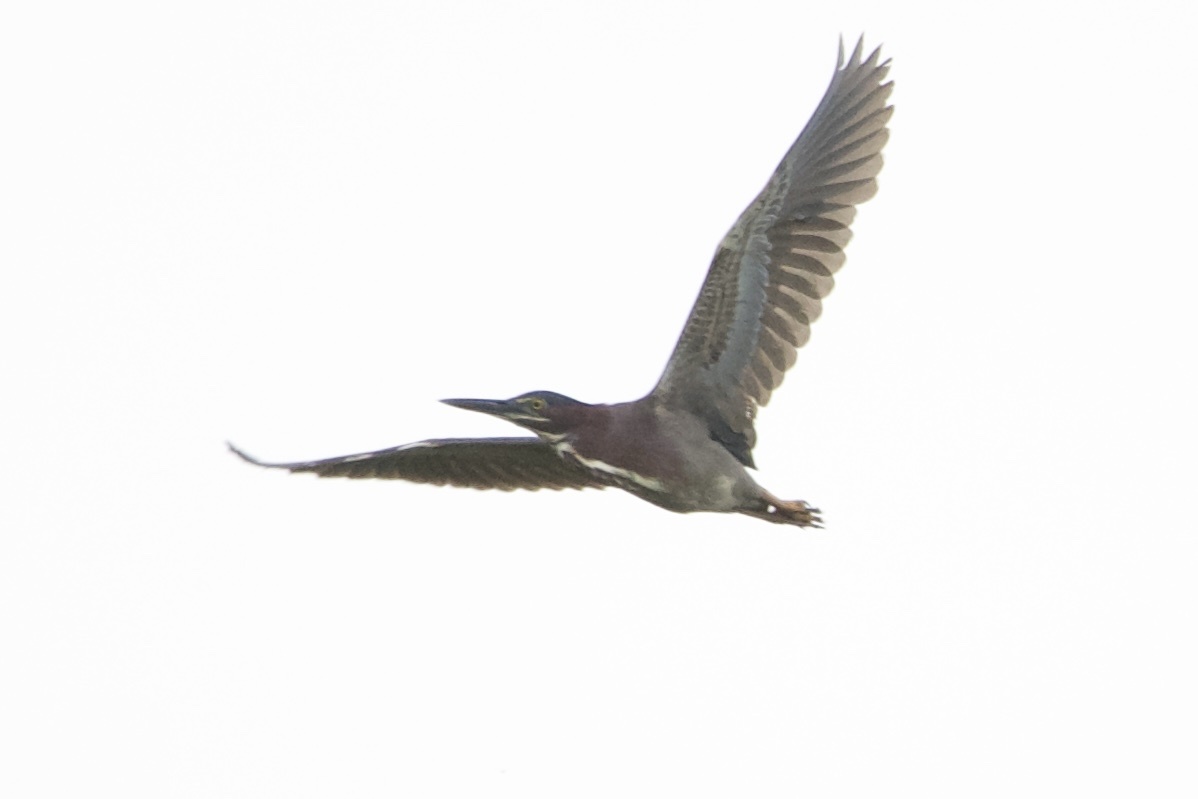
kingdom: Animalia
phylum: Chordata
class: Aves
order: Pelecaniformes
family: Ardeidae
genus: Butorides
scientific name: Butorides virescens
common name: Green heron
